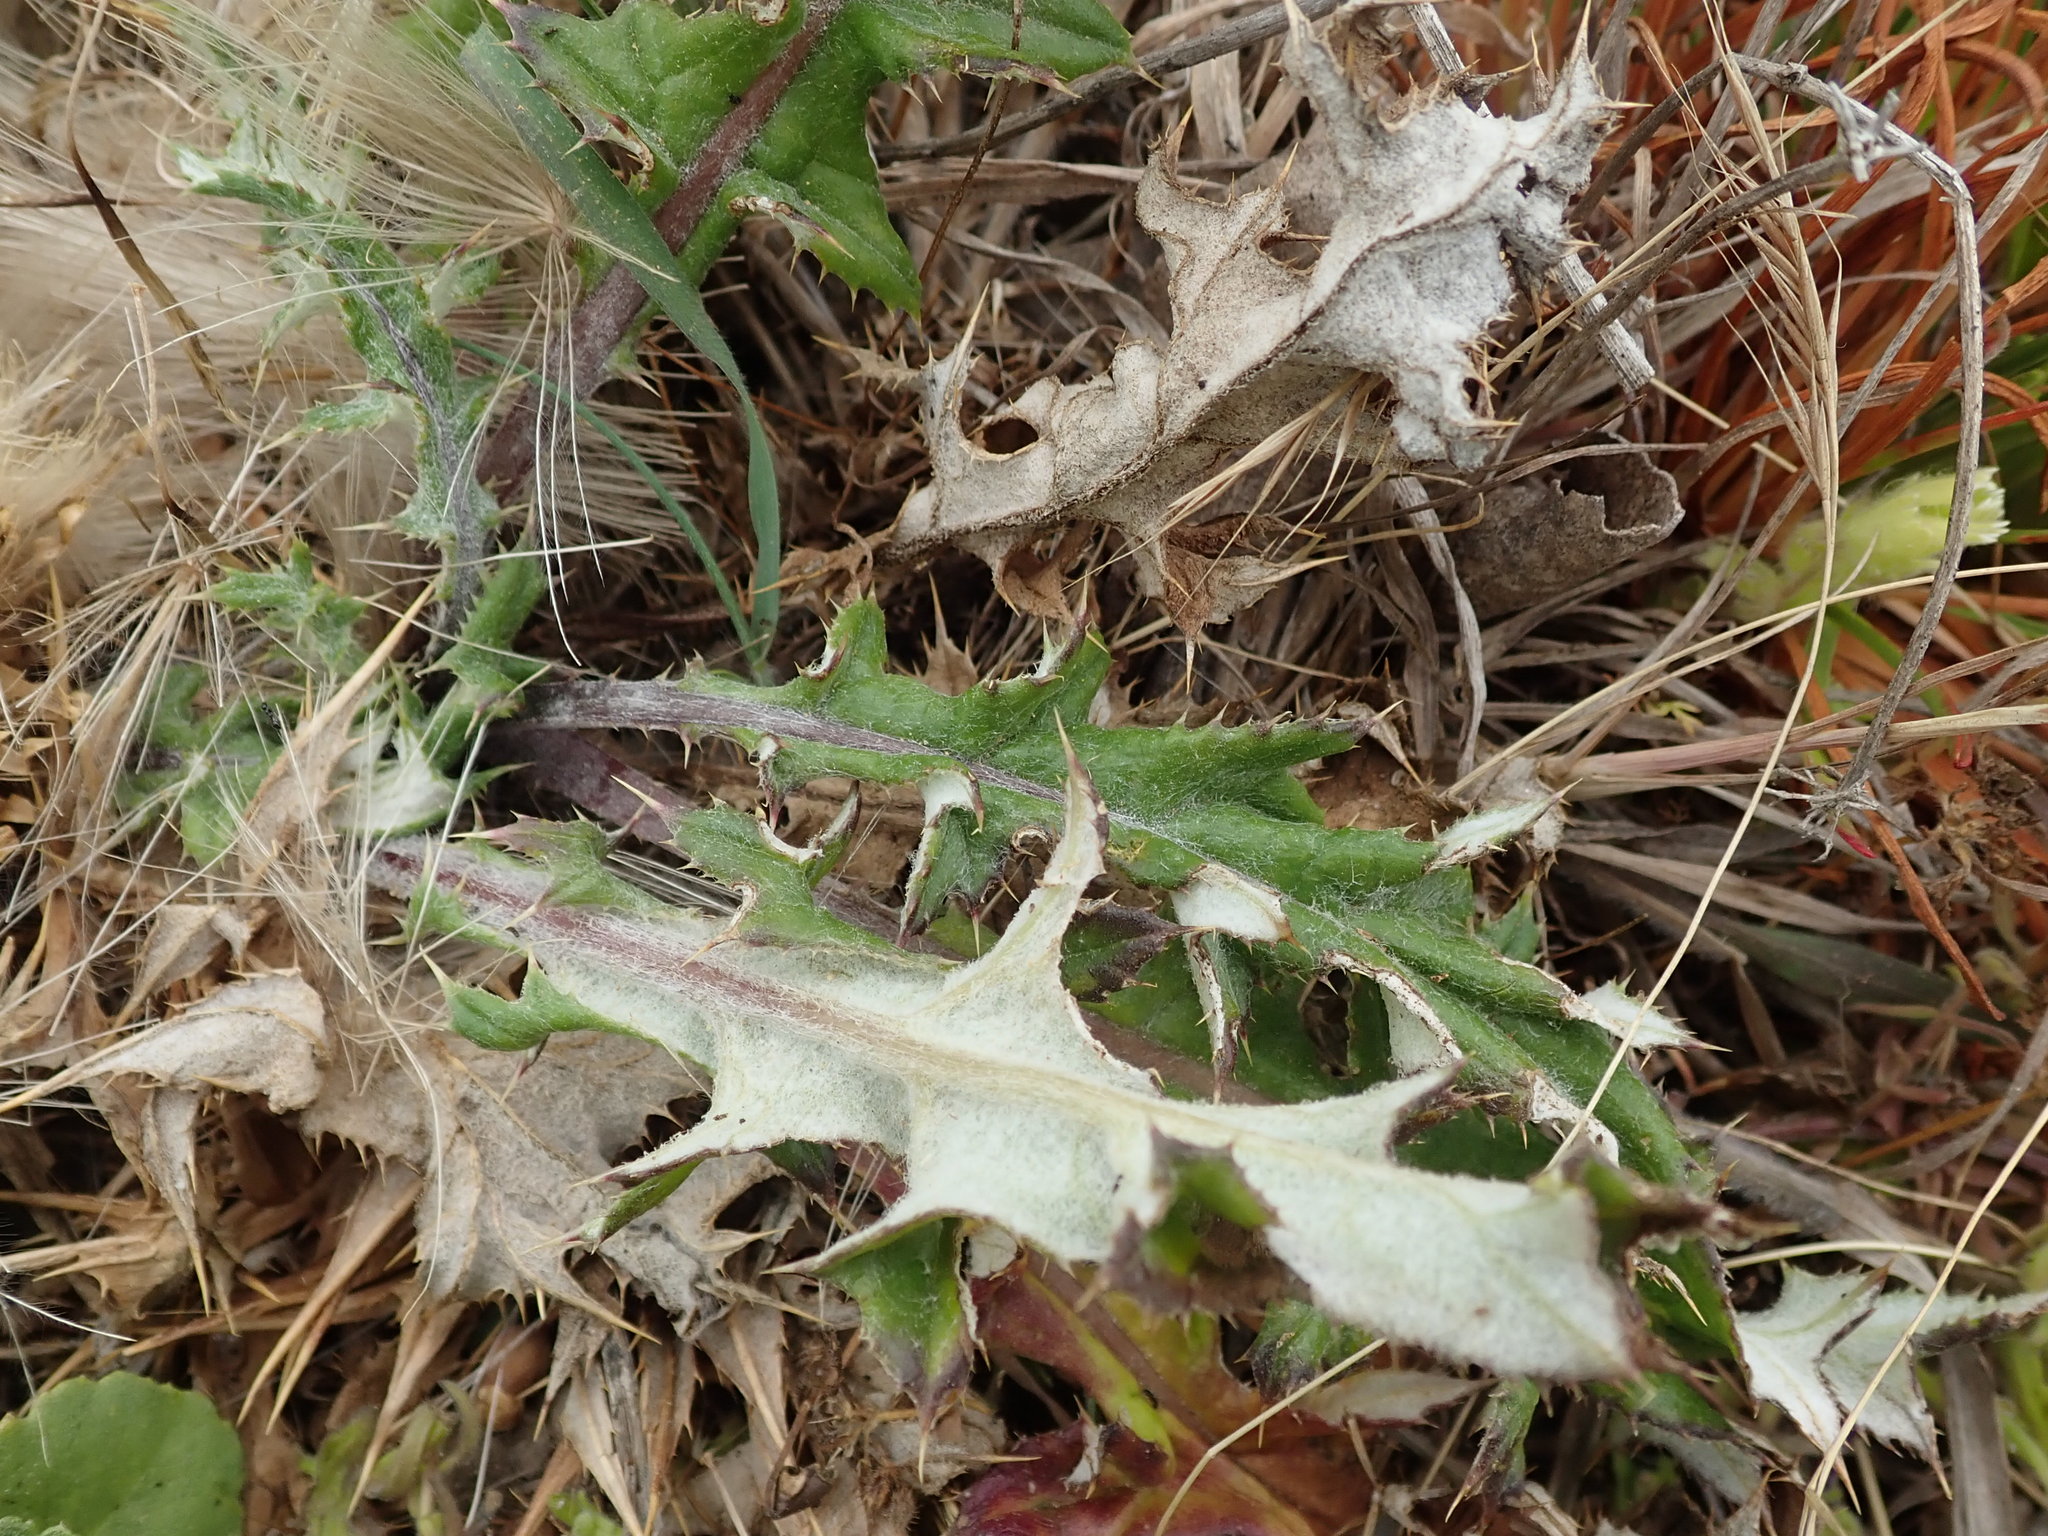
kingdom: Plantae
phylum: Tracheophyta
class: Magnoliopsida
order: Asterales
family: Asteraceae
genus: Cirsium
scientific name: Cirsium quercetorum
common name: Alameda county thistle
